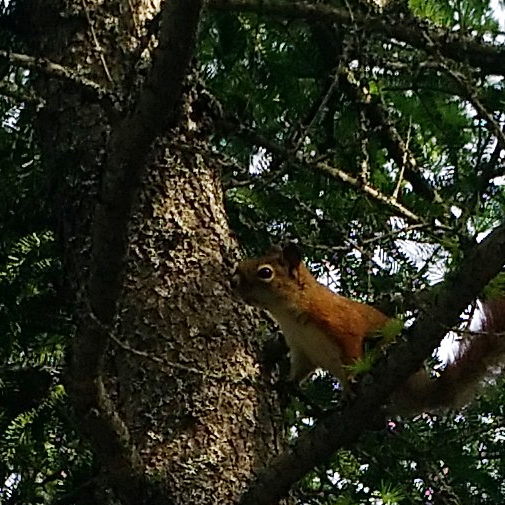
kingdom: Animalia
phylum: Chordata
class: Mammalia
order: Rodentia
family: Sciuridae
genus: Tamiasciurus
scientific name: Tamiasciurus hudsonicus
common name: Red squirrel
